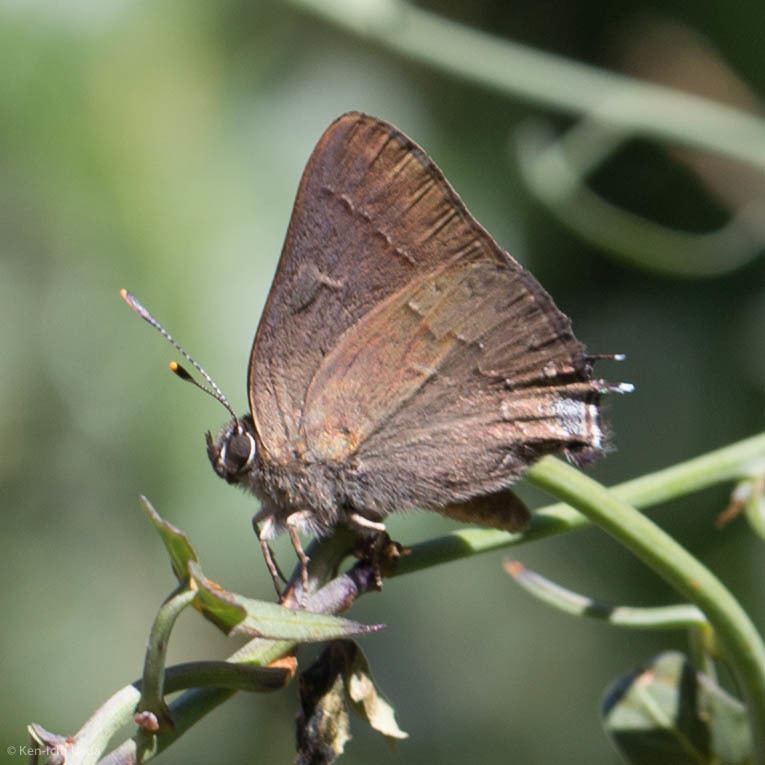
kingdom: Animalia
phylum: Arthropoda
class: Insecta
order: Lepidoptera
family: Lycaenidae
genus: Strymon
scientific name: Strymon saepium
